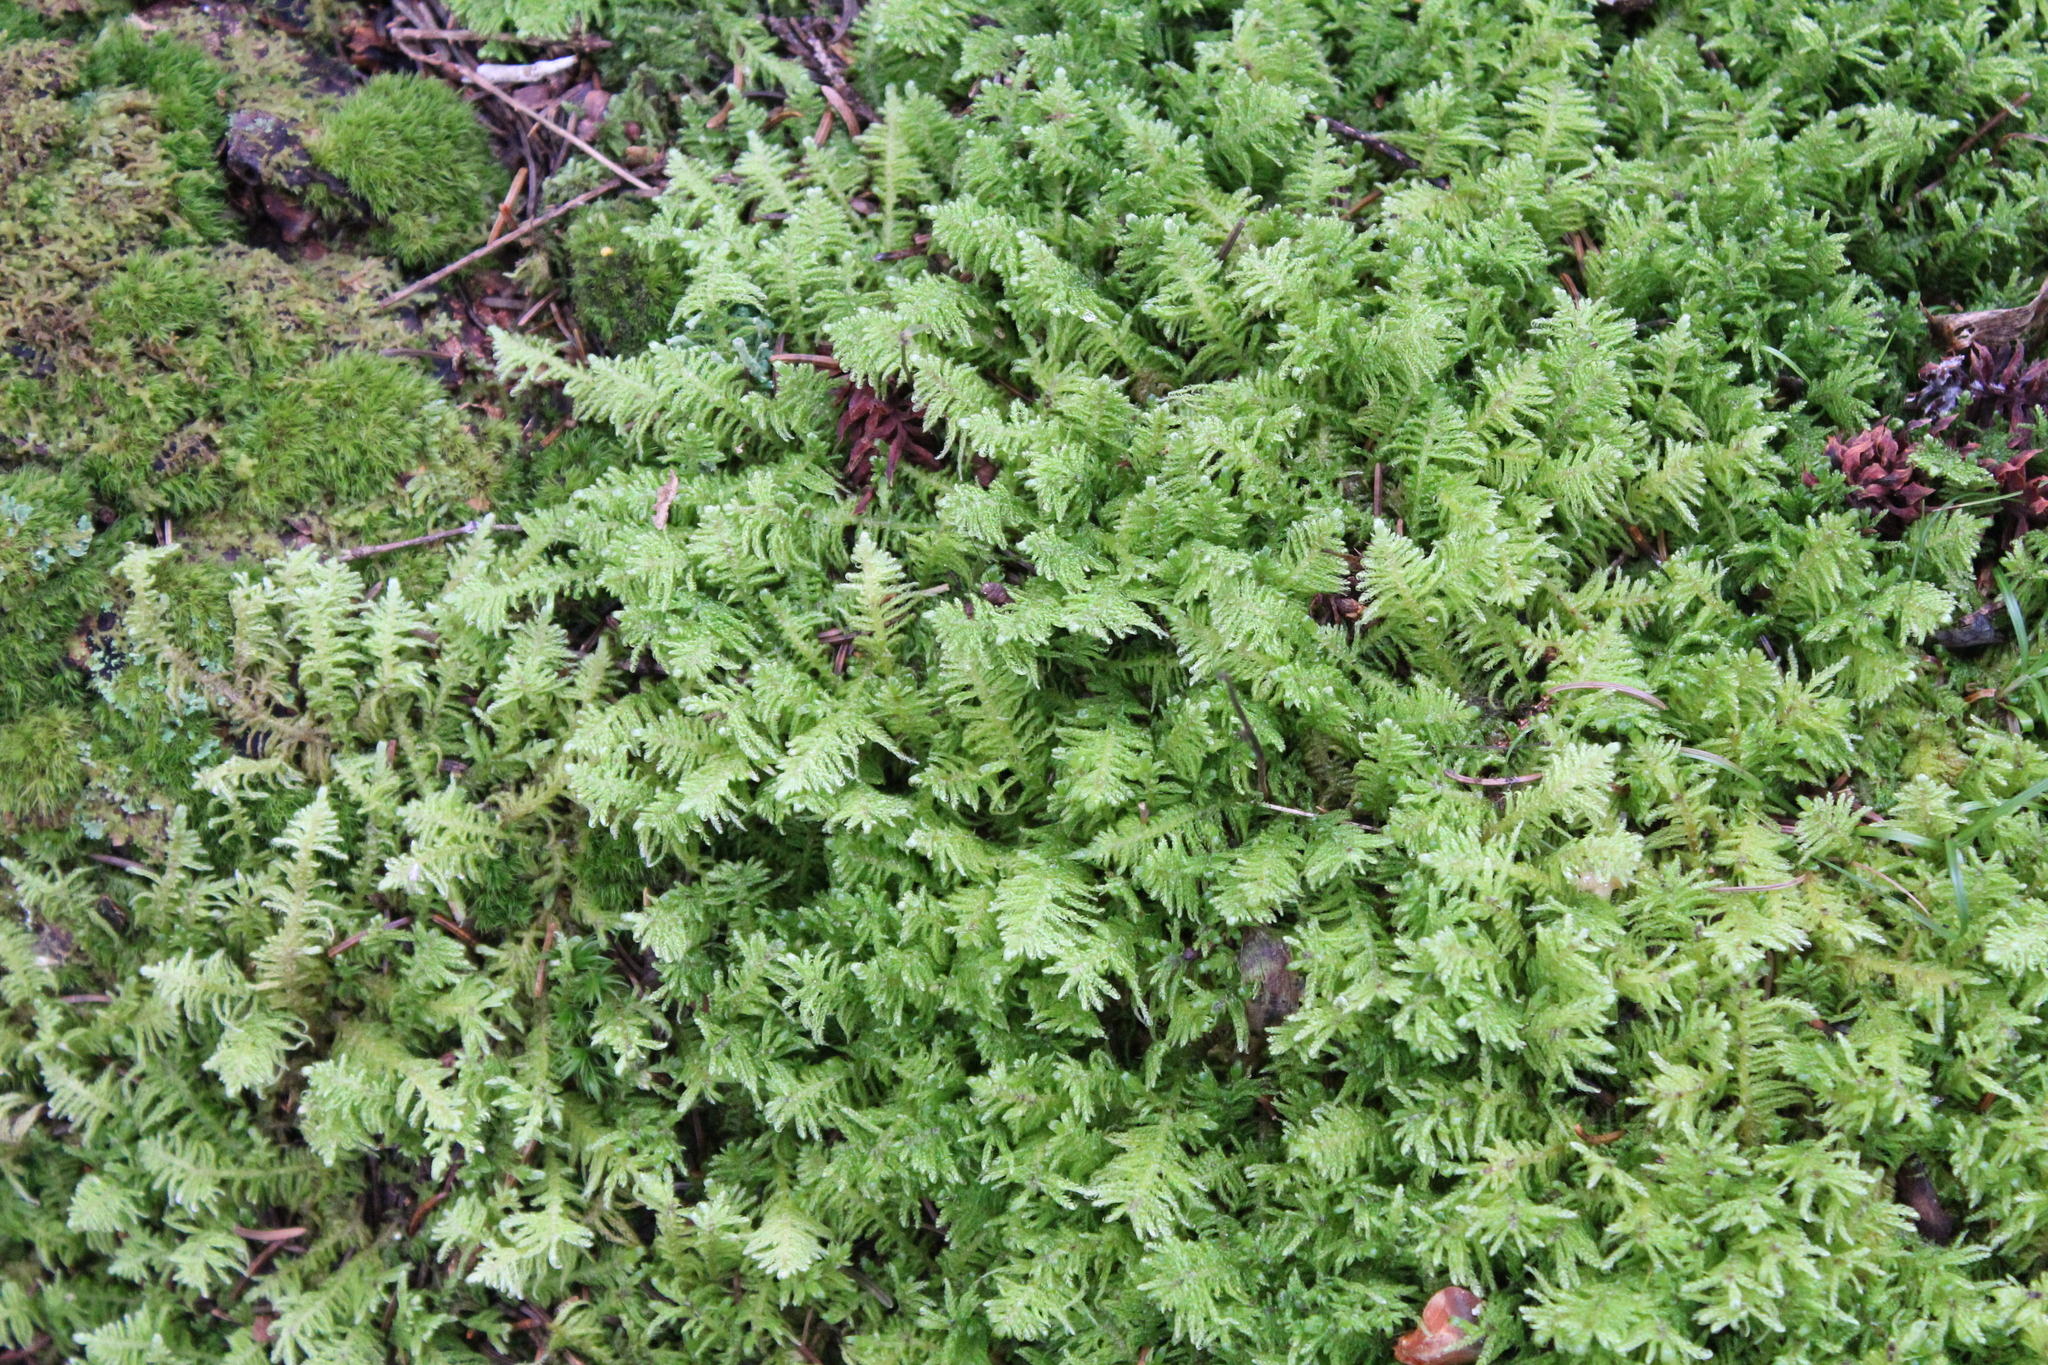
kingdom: Plantae
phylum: Bryophyta
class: Bryopsida
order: Hypnales
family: Pylaisiaceae
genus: Ptilium
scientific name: Ptilium crista-castrensis
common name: Knight's plume moss
